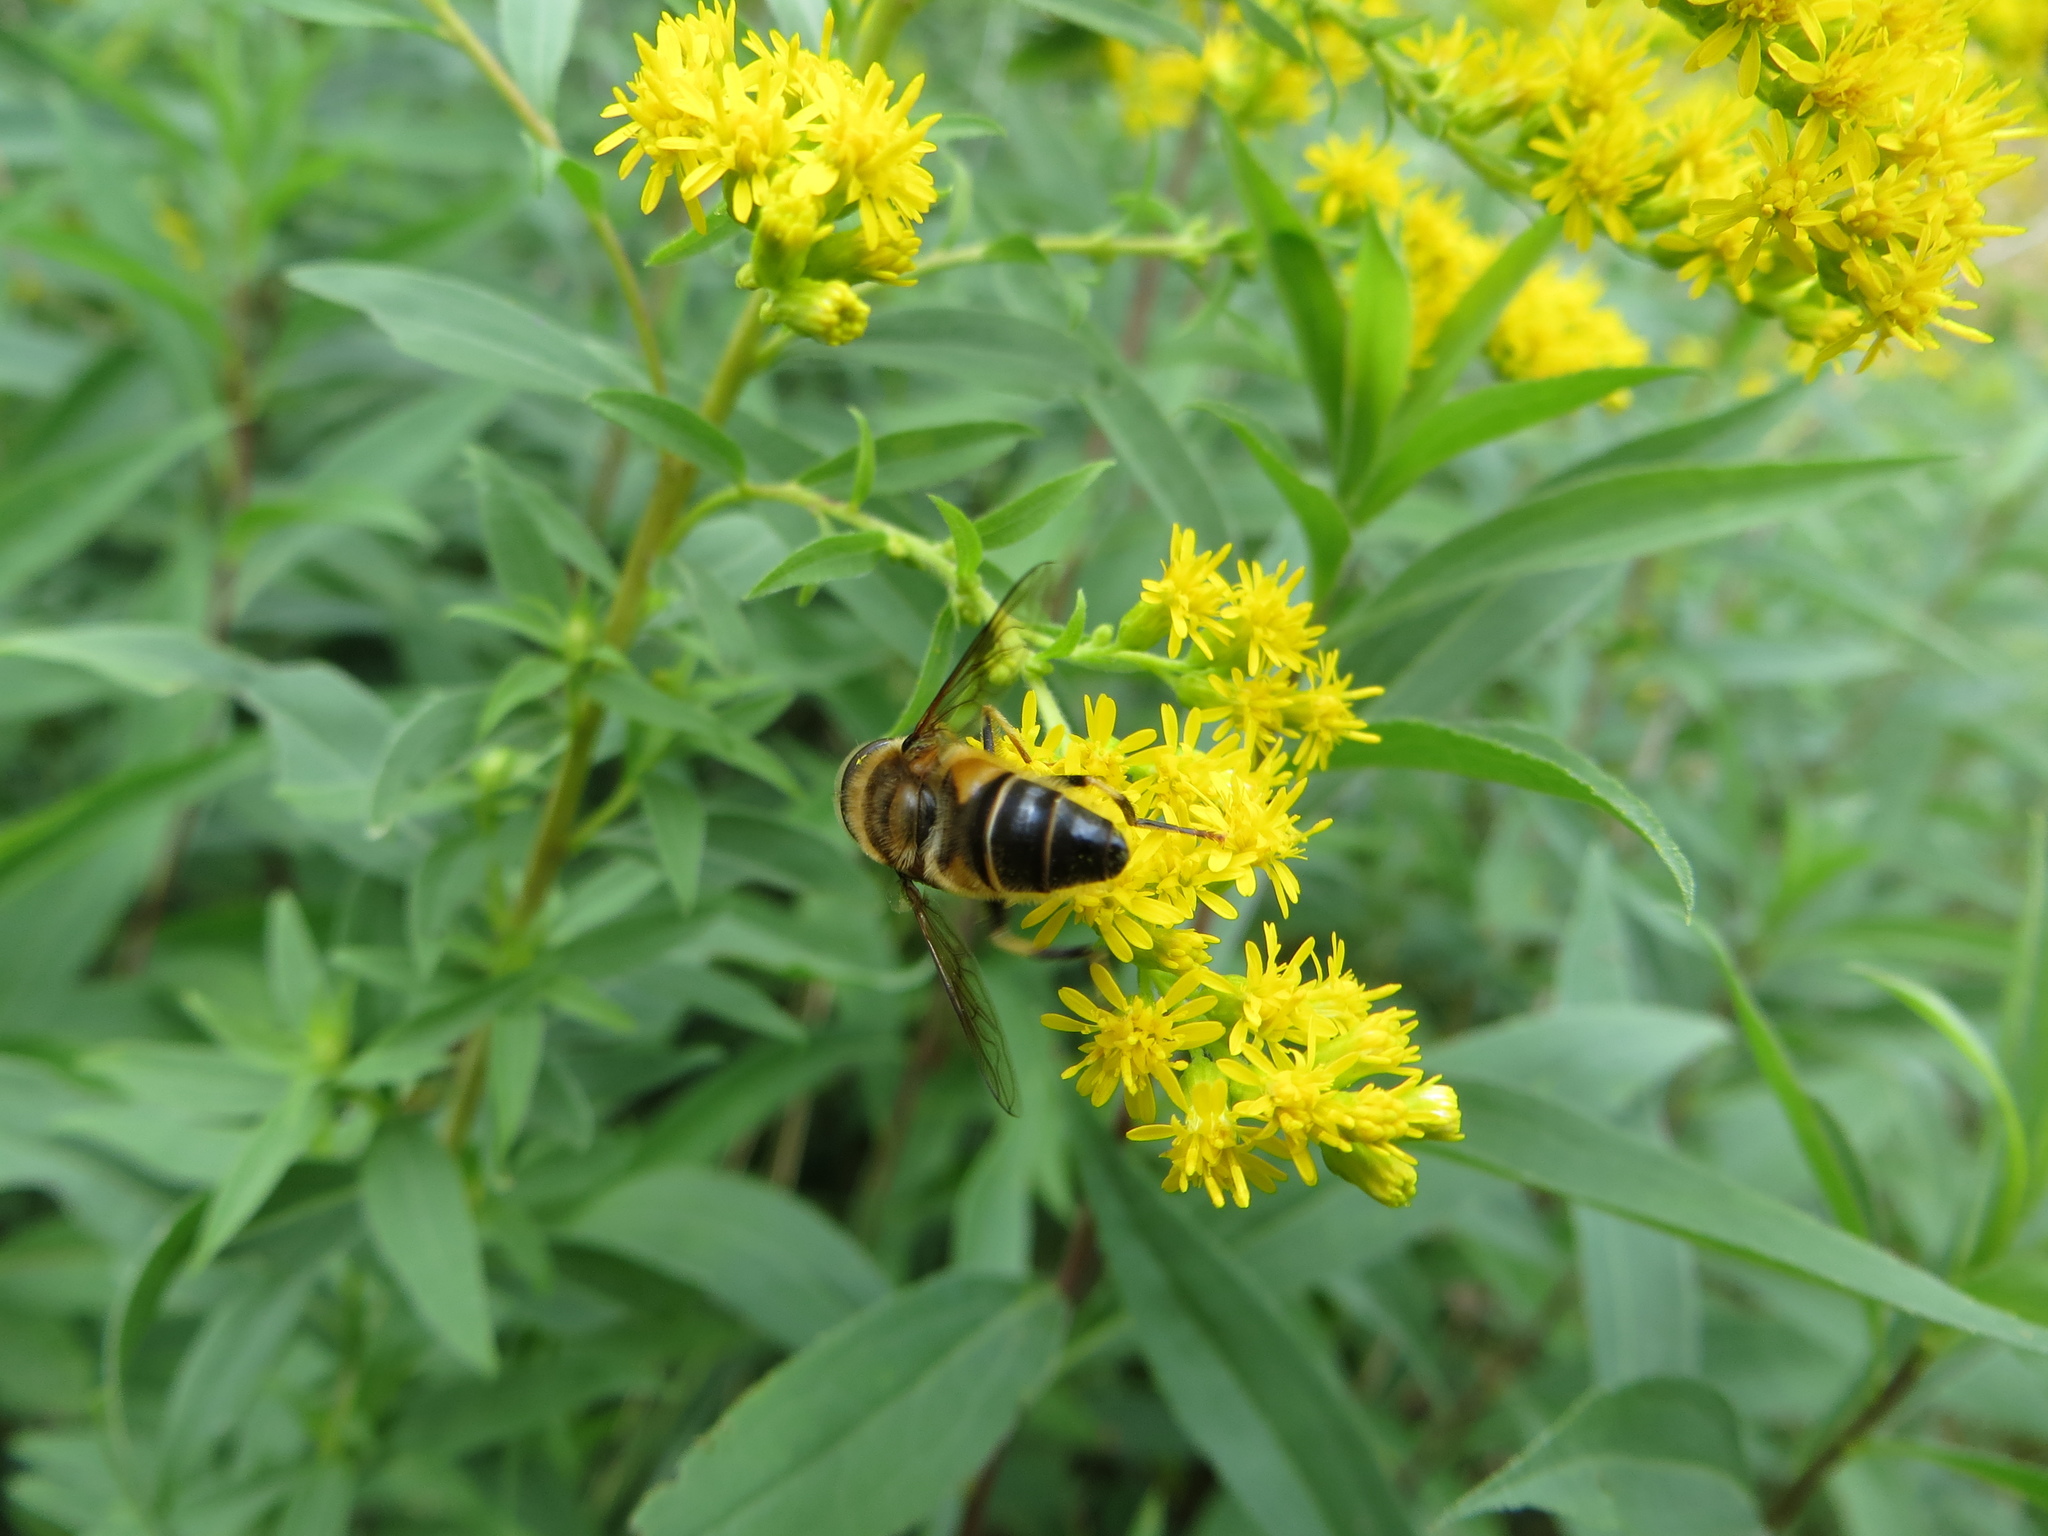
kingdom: Animalia
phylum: Arthropoda
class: Insecta
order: Diptera
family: Syrphidae
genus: Eristalis
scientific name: Eristalis pertinax
